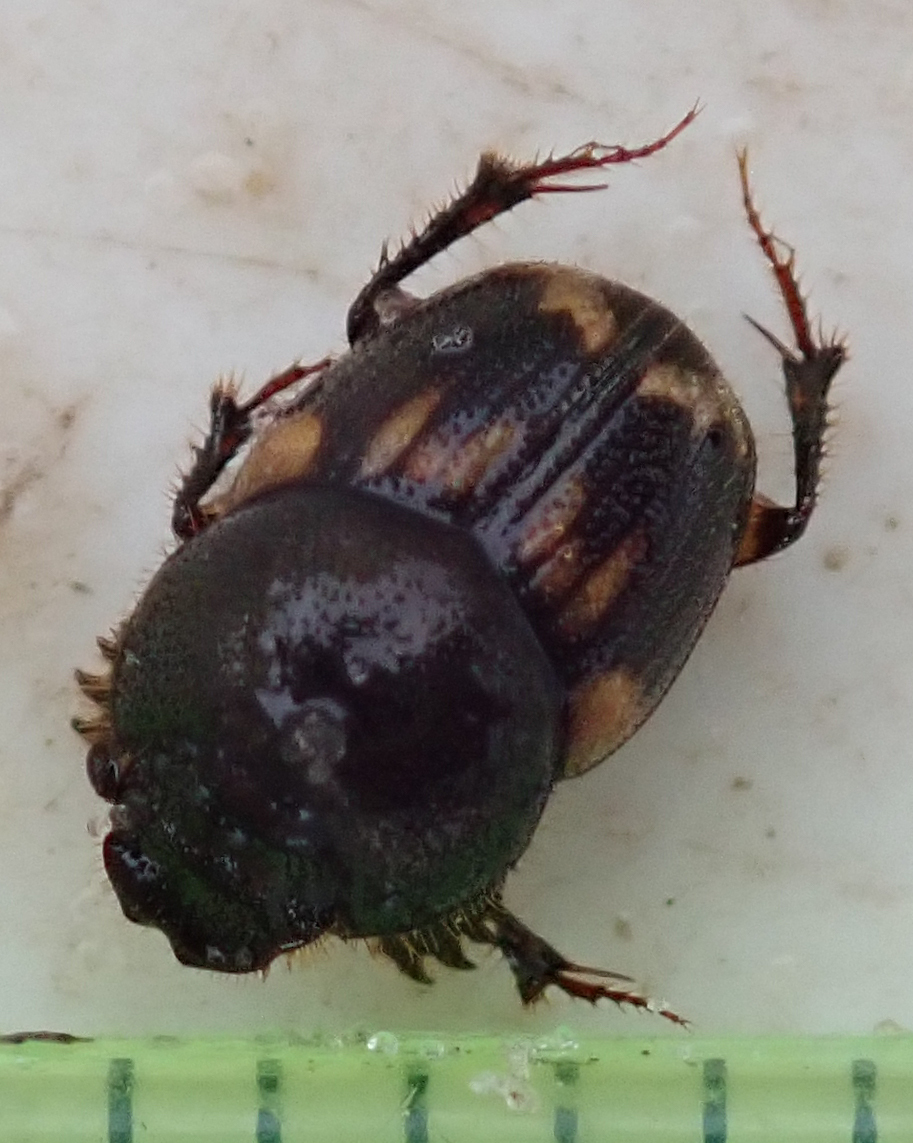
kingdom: Animalia
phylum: Arthropoda
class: Insecta
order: Coleoptera
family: Scarabaeidae
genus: Onthophagus
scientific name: Onthophagus suffusus
